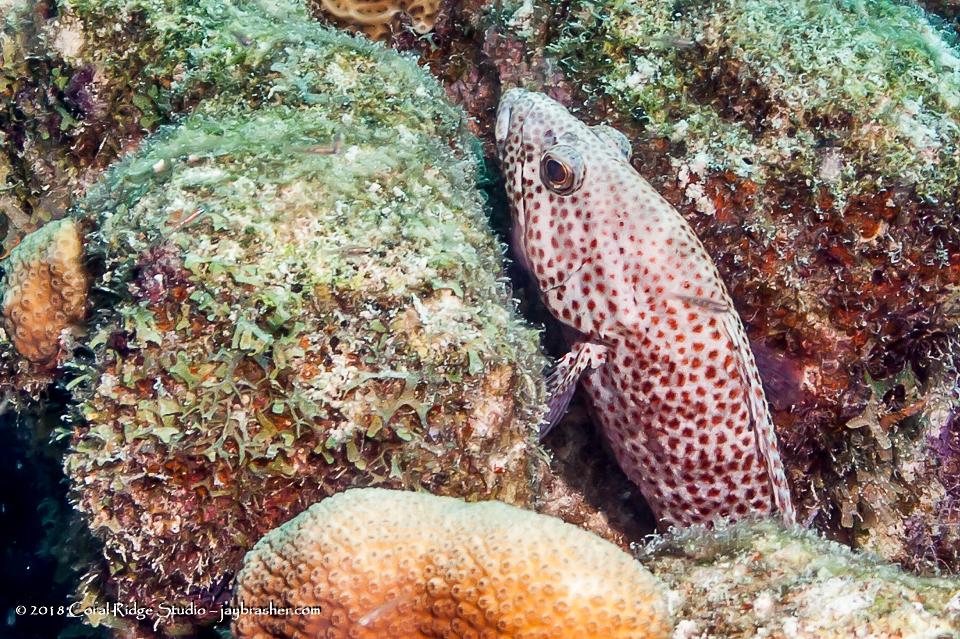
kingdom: Animalia
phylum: Chordata
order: Perciformes
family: Serranidae
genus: Cephalopholis
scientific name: Cephalopholis cruentata
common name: Graysby
